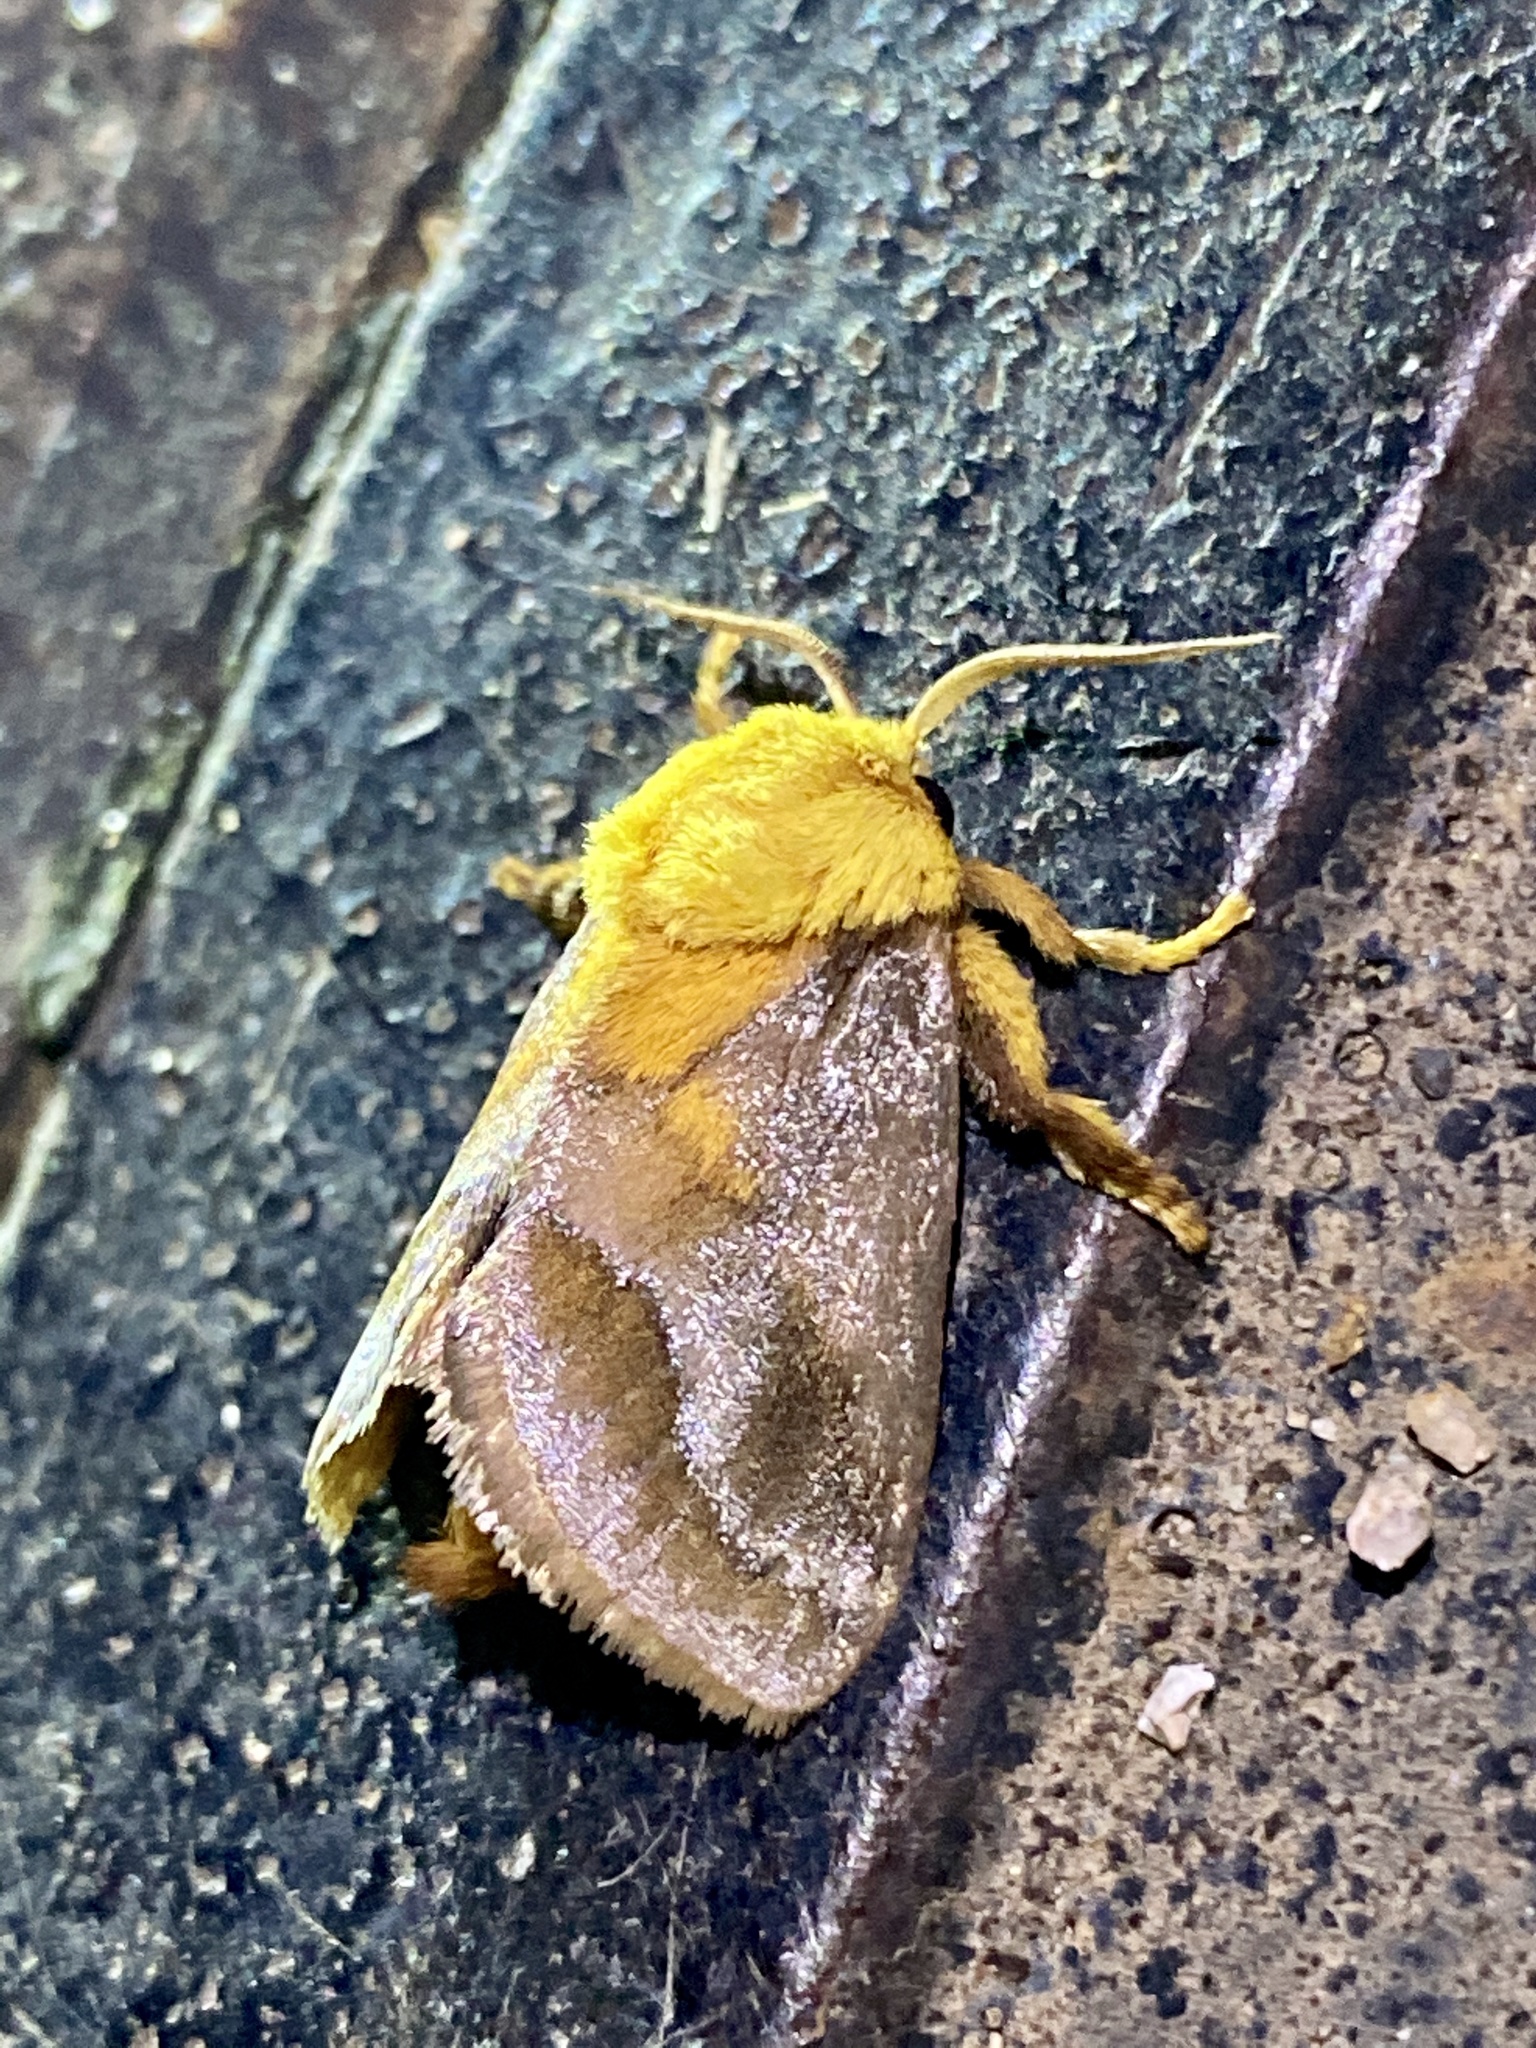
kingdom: Animalia
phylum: Arthropoda
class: Insecta
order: Lepidoptera
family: Limacodidae
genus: Narosoideus
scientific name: Narosoideus flavidorsalis
